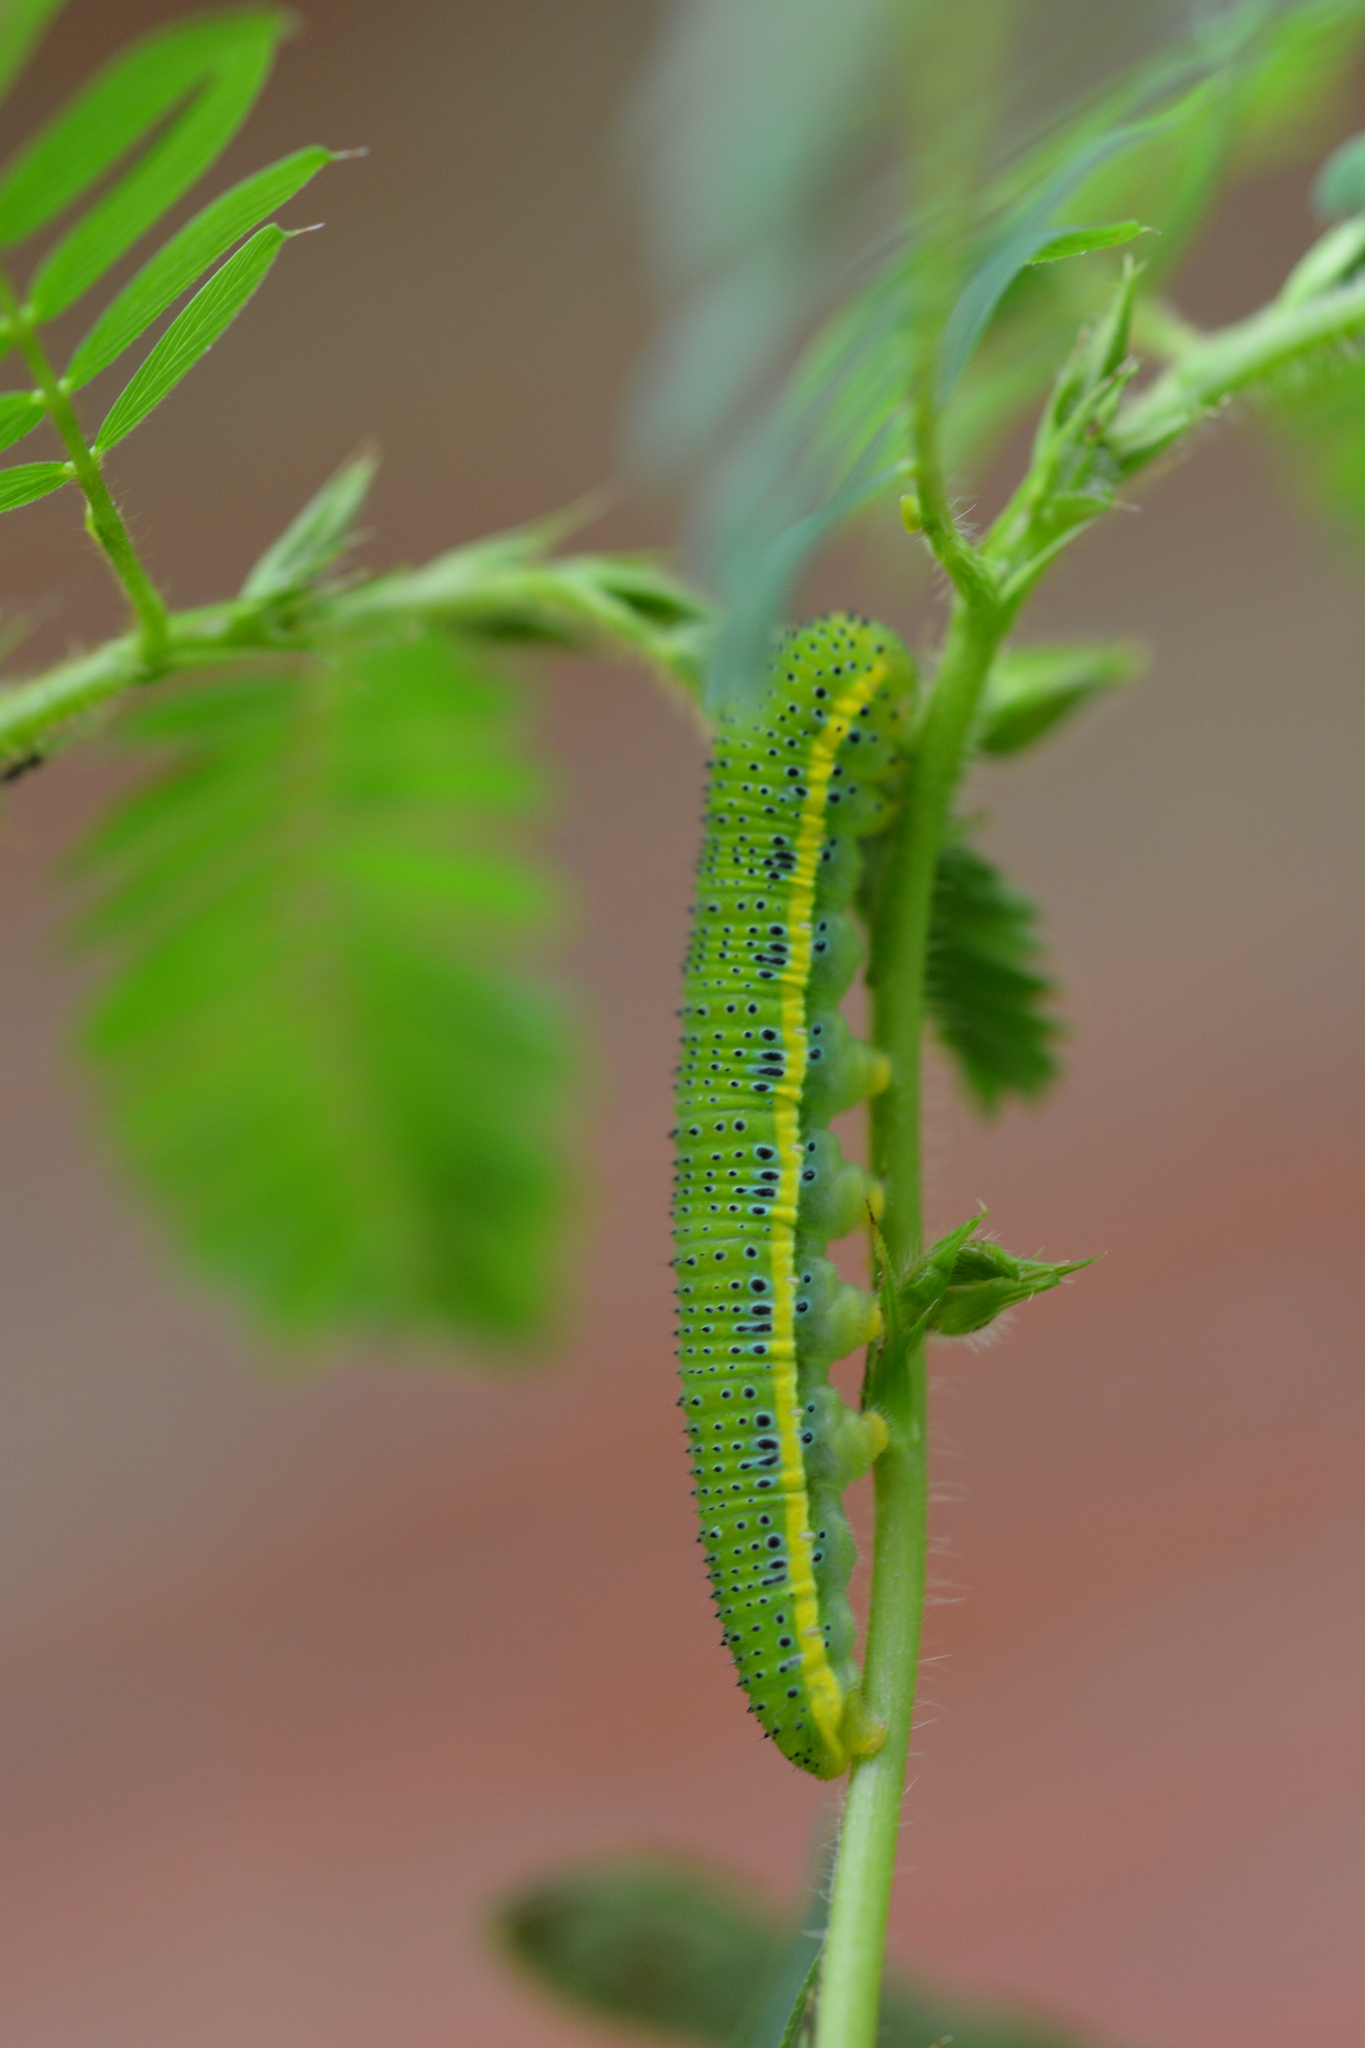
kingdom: Animalia
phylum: Arthropoda
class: Insecta
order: Lepidoptera
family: Pieridae
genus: Phoebis
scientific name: Phoebis sennae
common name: Cloudless sulphur
